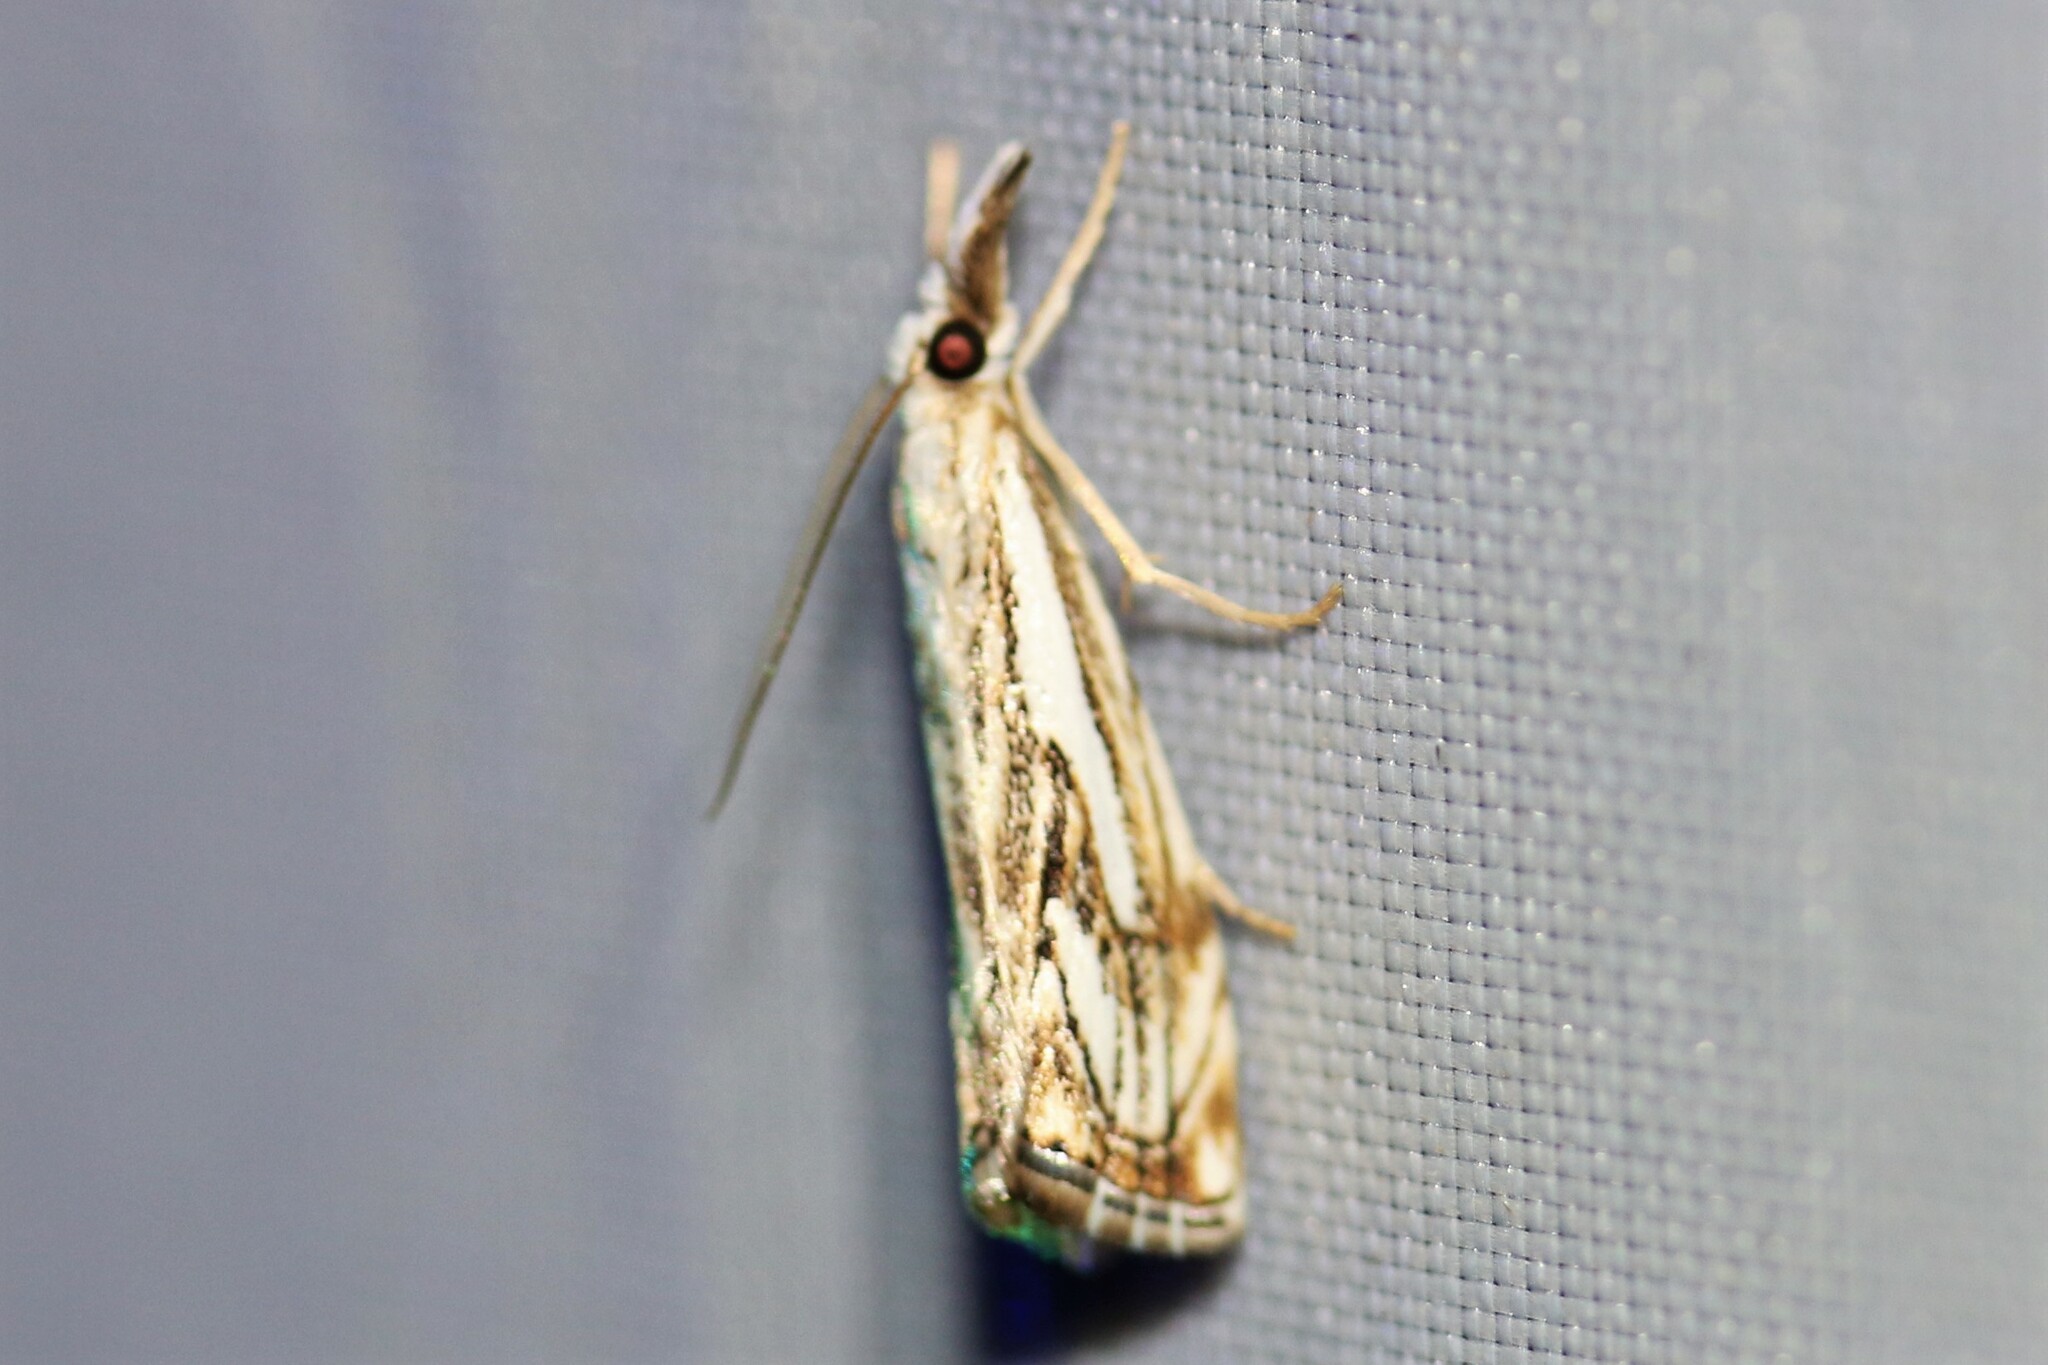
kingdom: Animalia
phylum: Arthropoda
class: Insecta
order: Lepidoptera
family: Crambidae
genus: Catoptria
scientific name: Catoptria falsella
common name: Chequered grass-veneer
